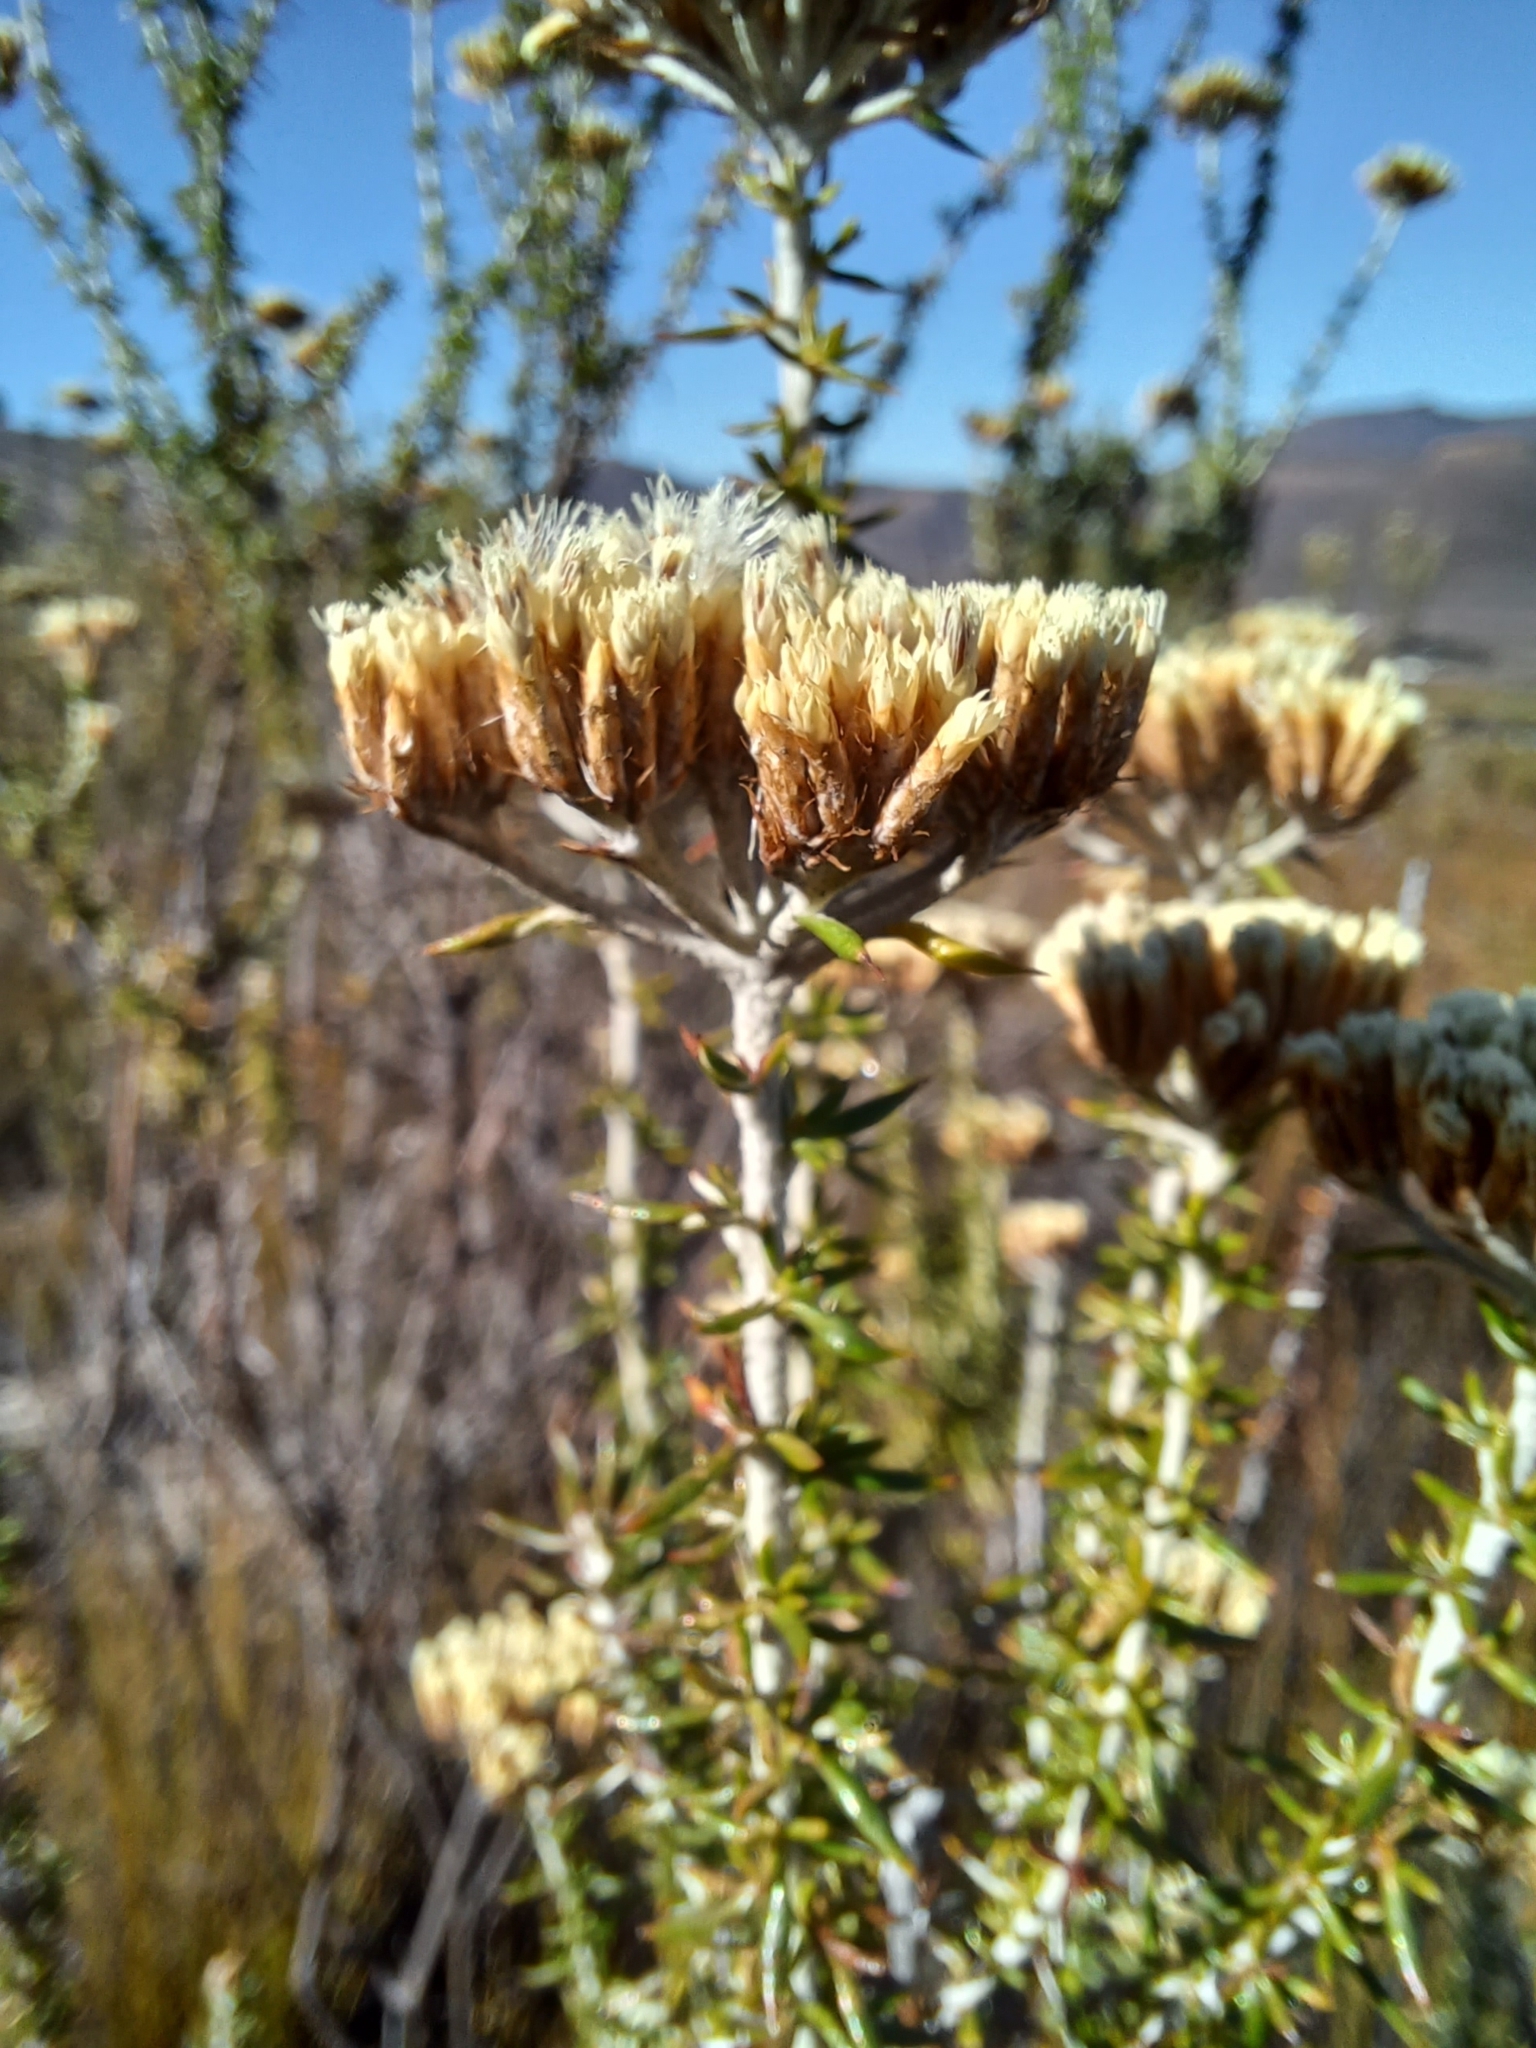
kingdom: Plantae
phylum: Tracheophyta
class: Magnoliopsida
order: Asterales
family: Asteraceae
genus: Metalasia
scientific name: Metalasia dregeana
